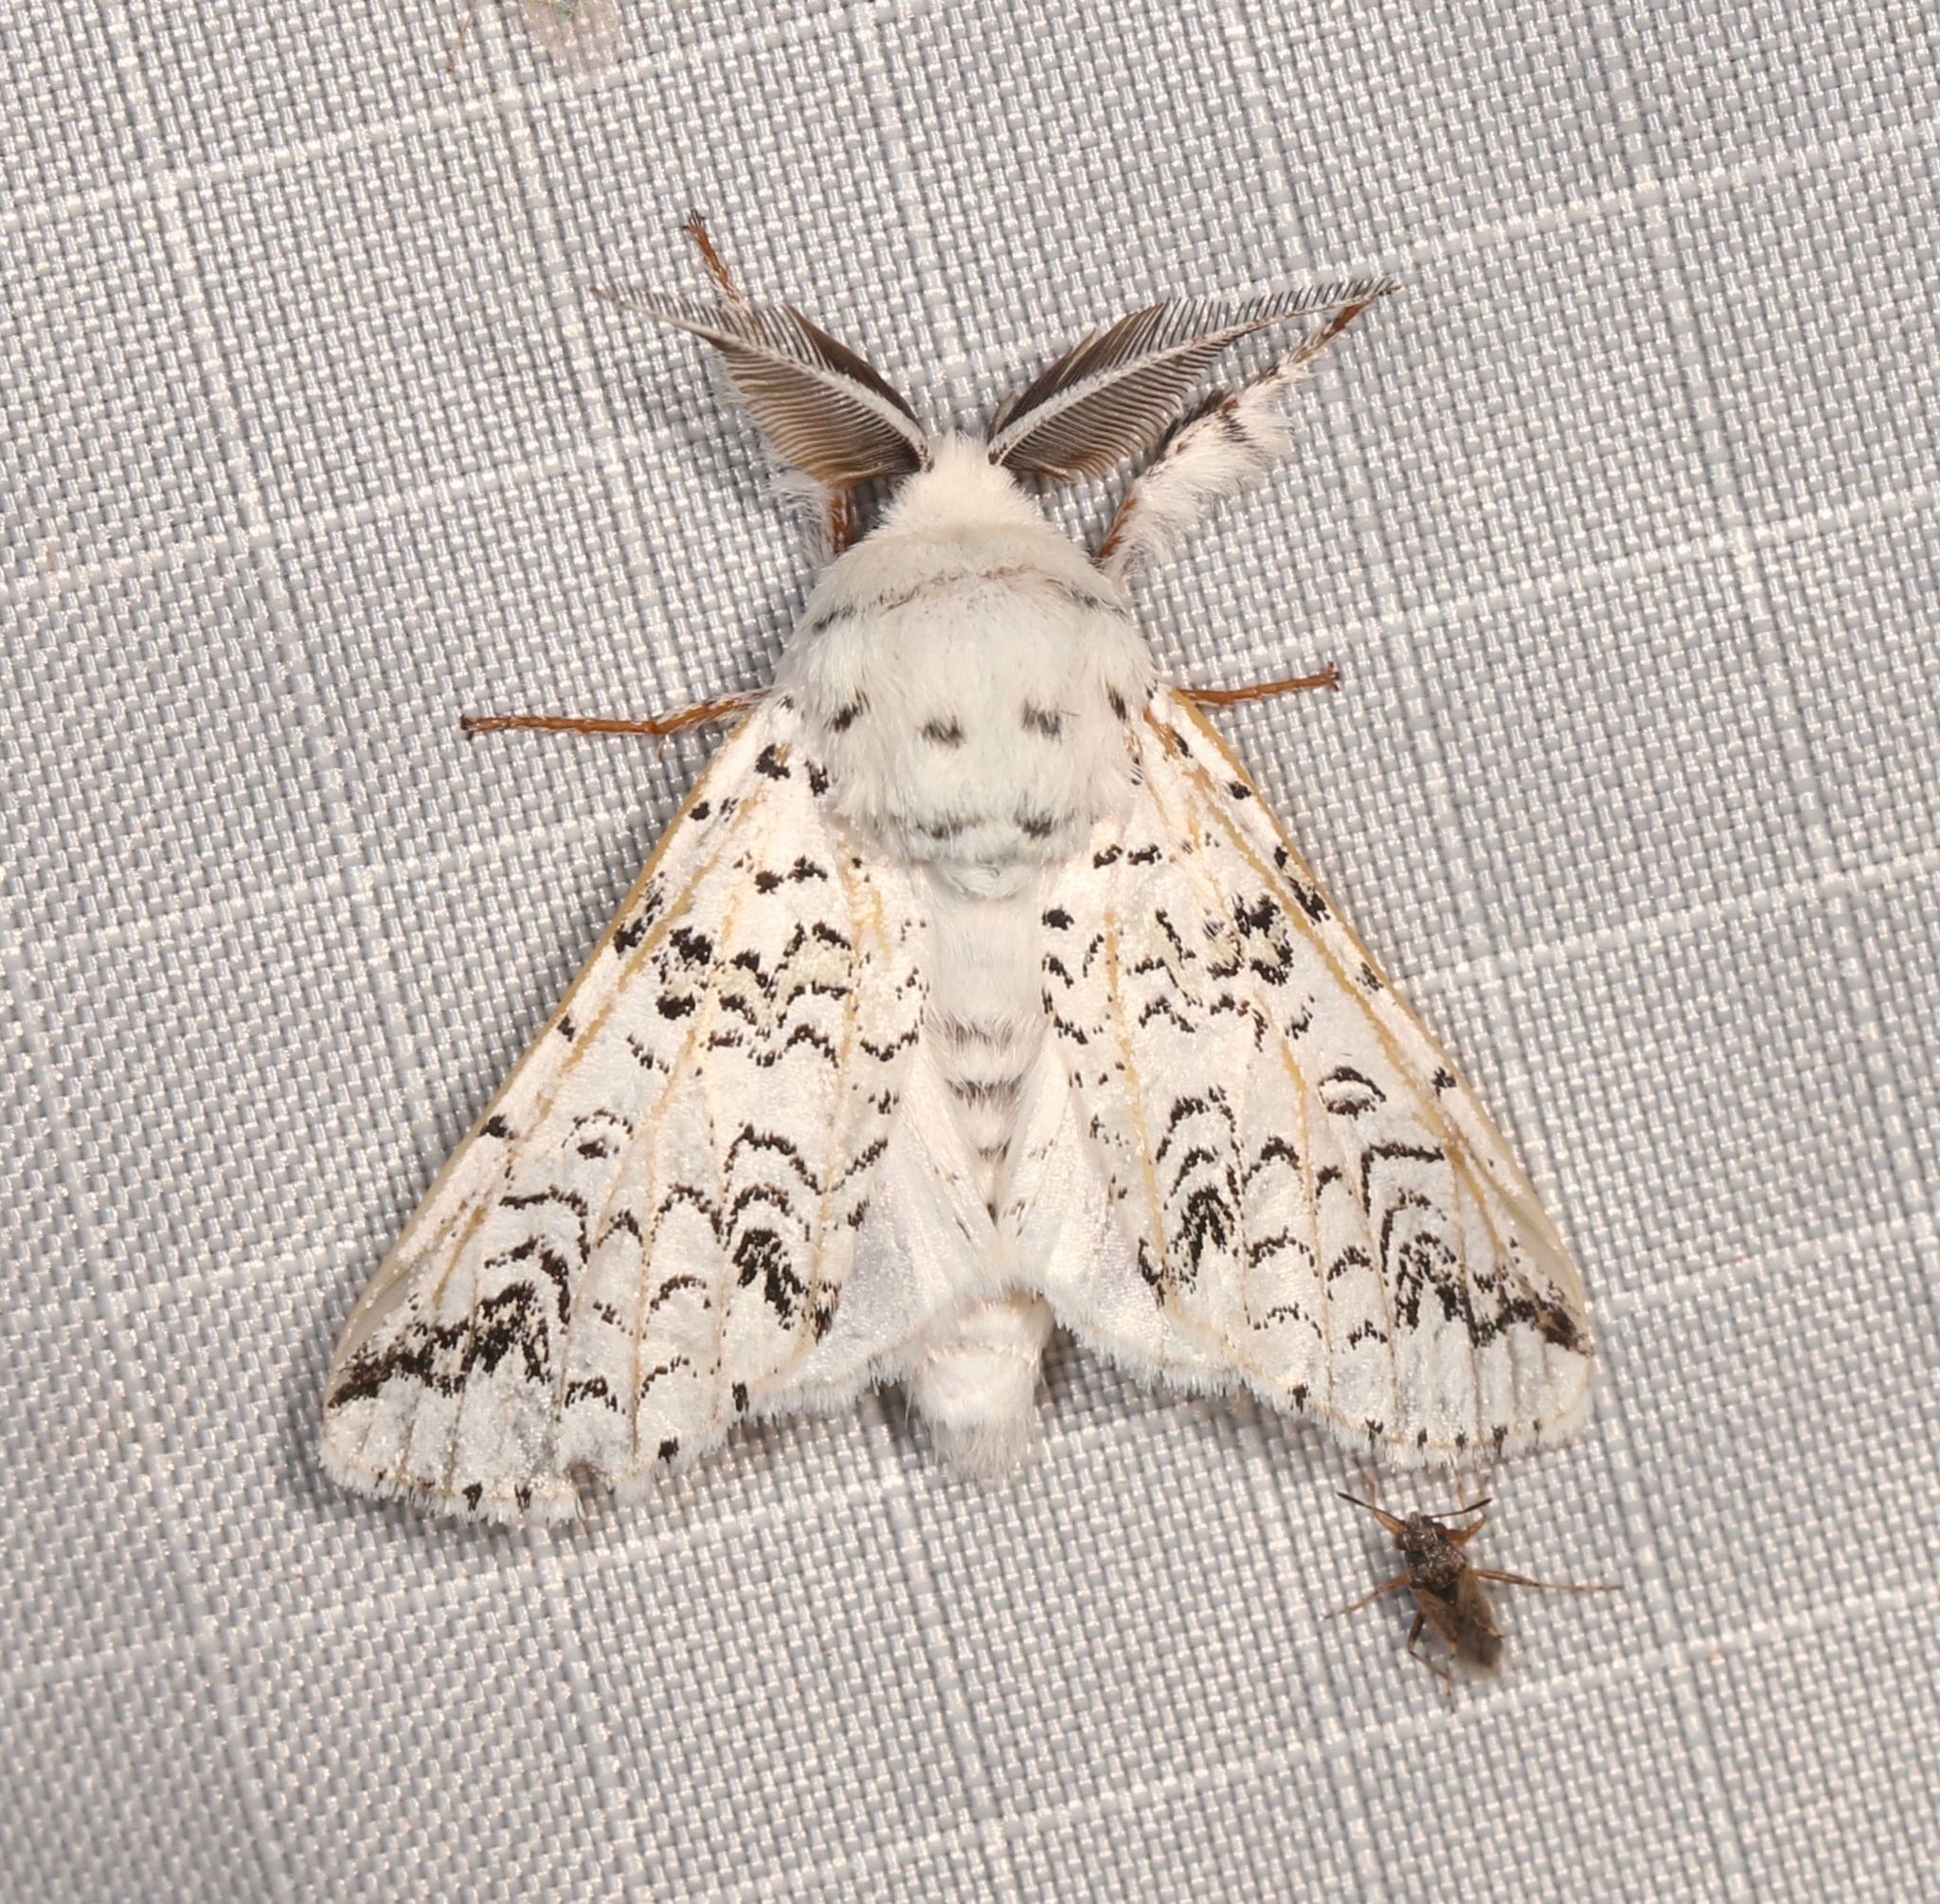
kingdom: Animalia
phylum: Arthropoda
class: Insecta
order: Lepidoptera
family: Notodontidae
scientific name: Notodontidae
